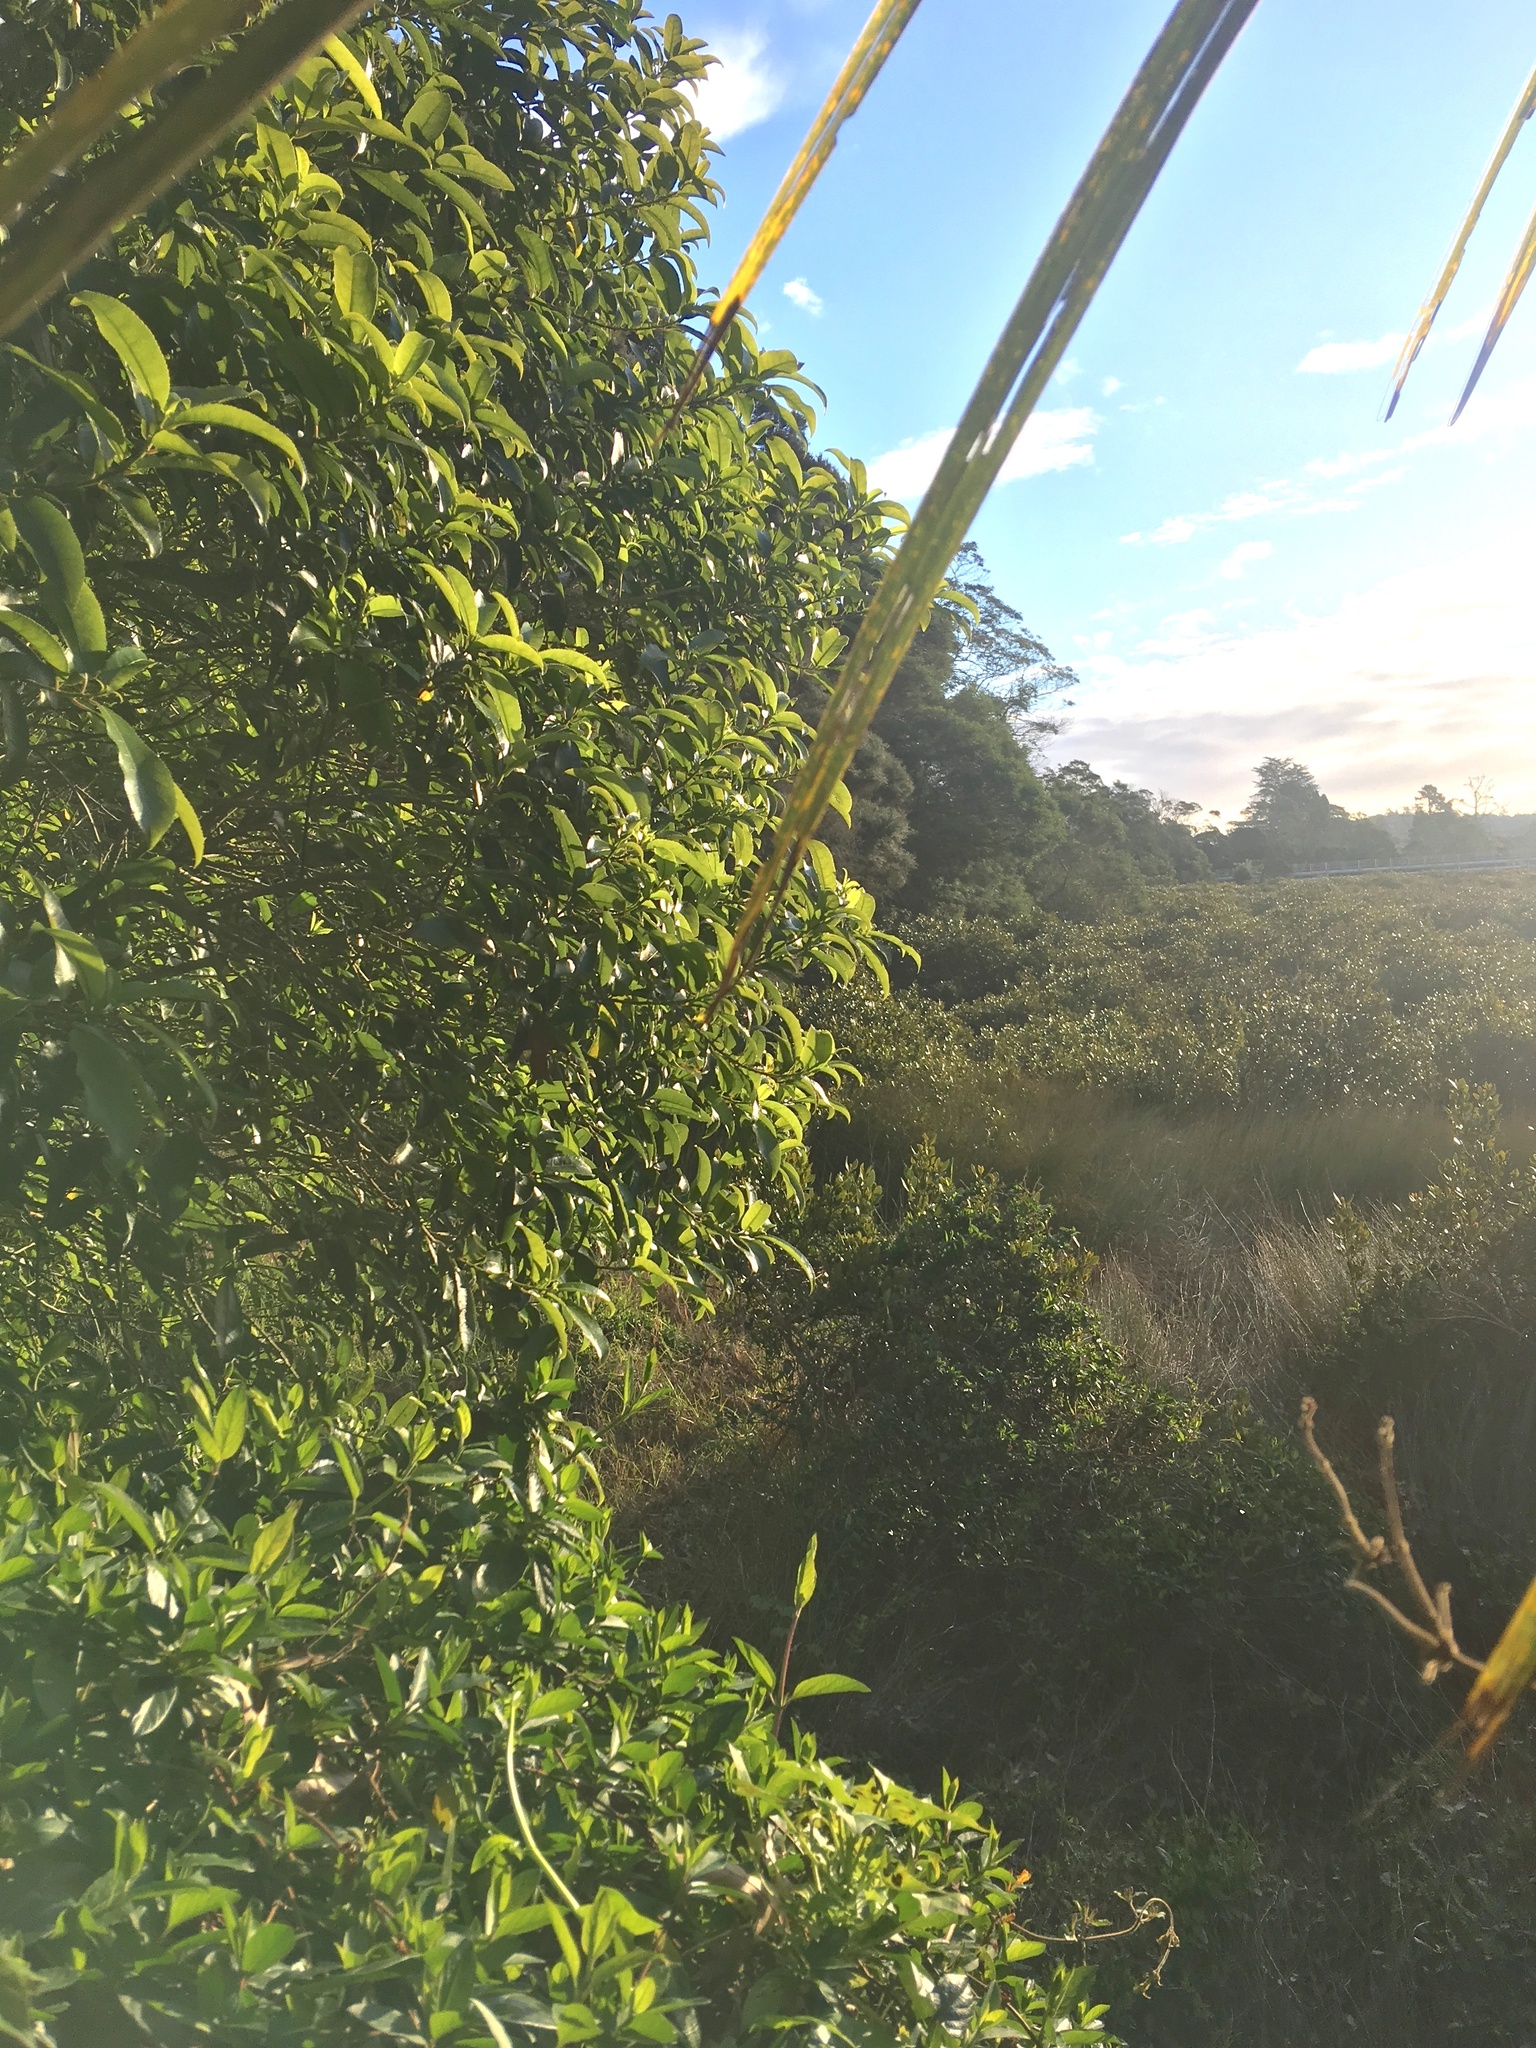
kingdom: Plantae
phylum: Tracheophyta
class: Magnoliopsida
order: Dipsacales
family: Caprifoliaceae
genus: Lonicera
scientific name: Lonicera japonica
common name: Japanese honeysuckle
